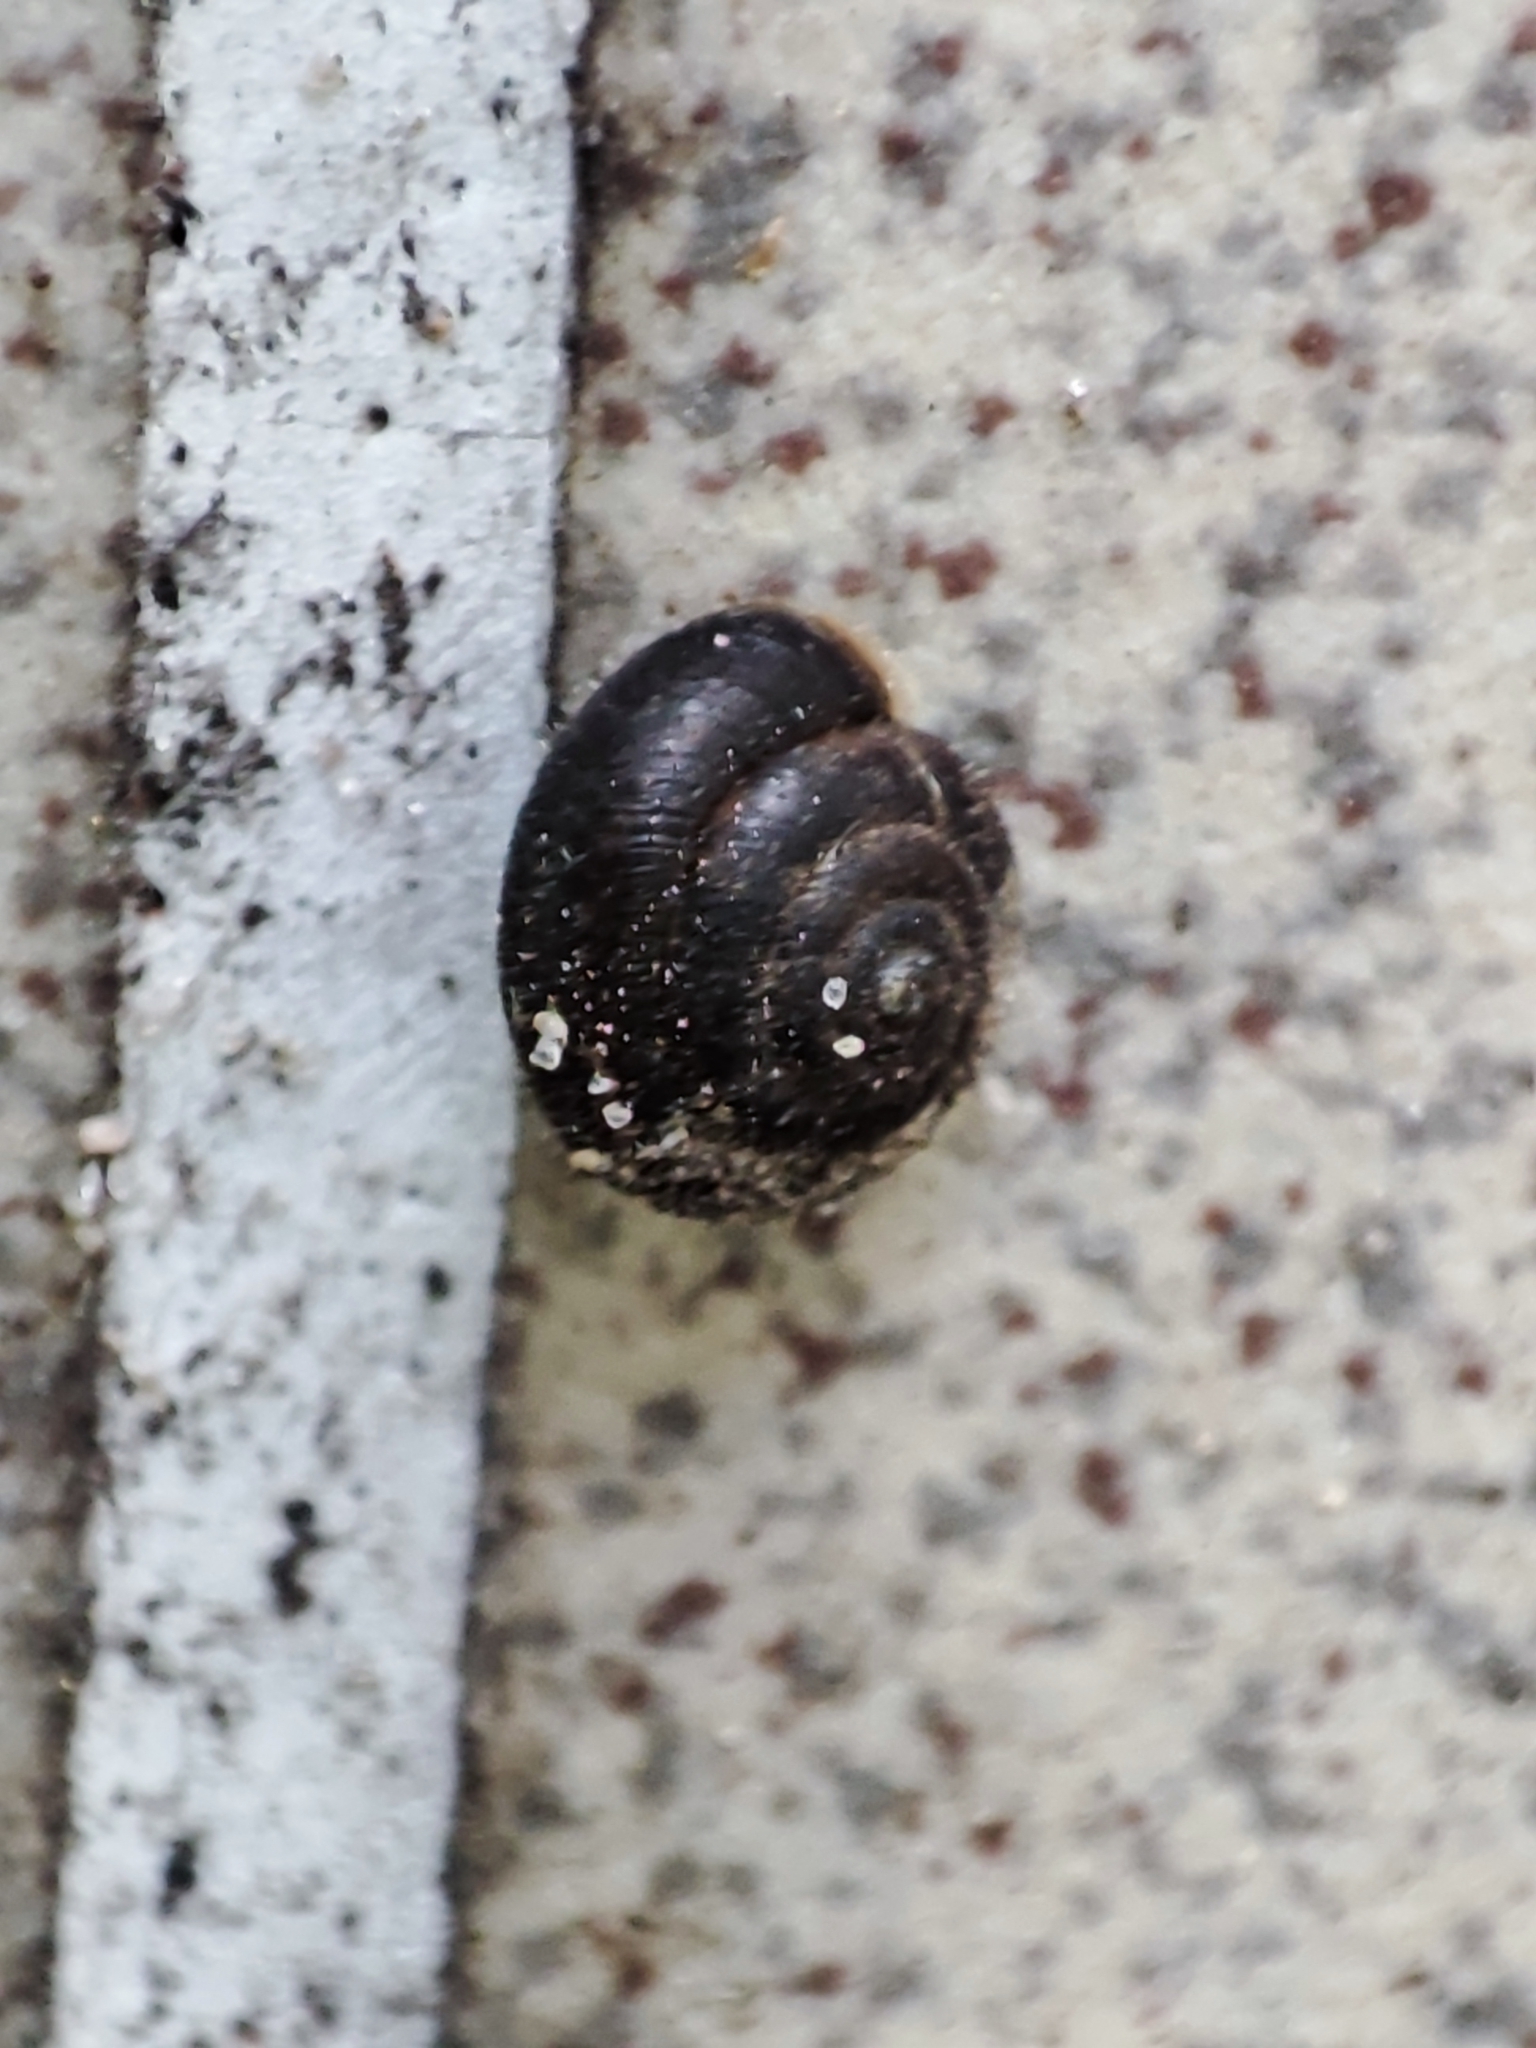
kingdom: Animalia
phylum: Mollusca
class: Gastropoda
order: Stylommatophora
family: Hygromiidae
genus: Trochulus
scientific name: Trochulus hispidus
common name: Hairy snail
